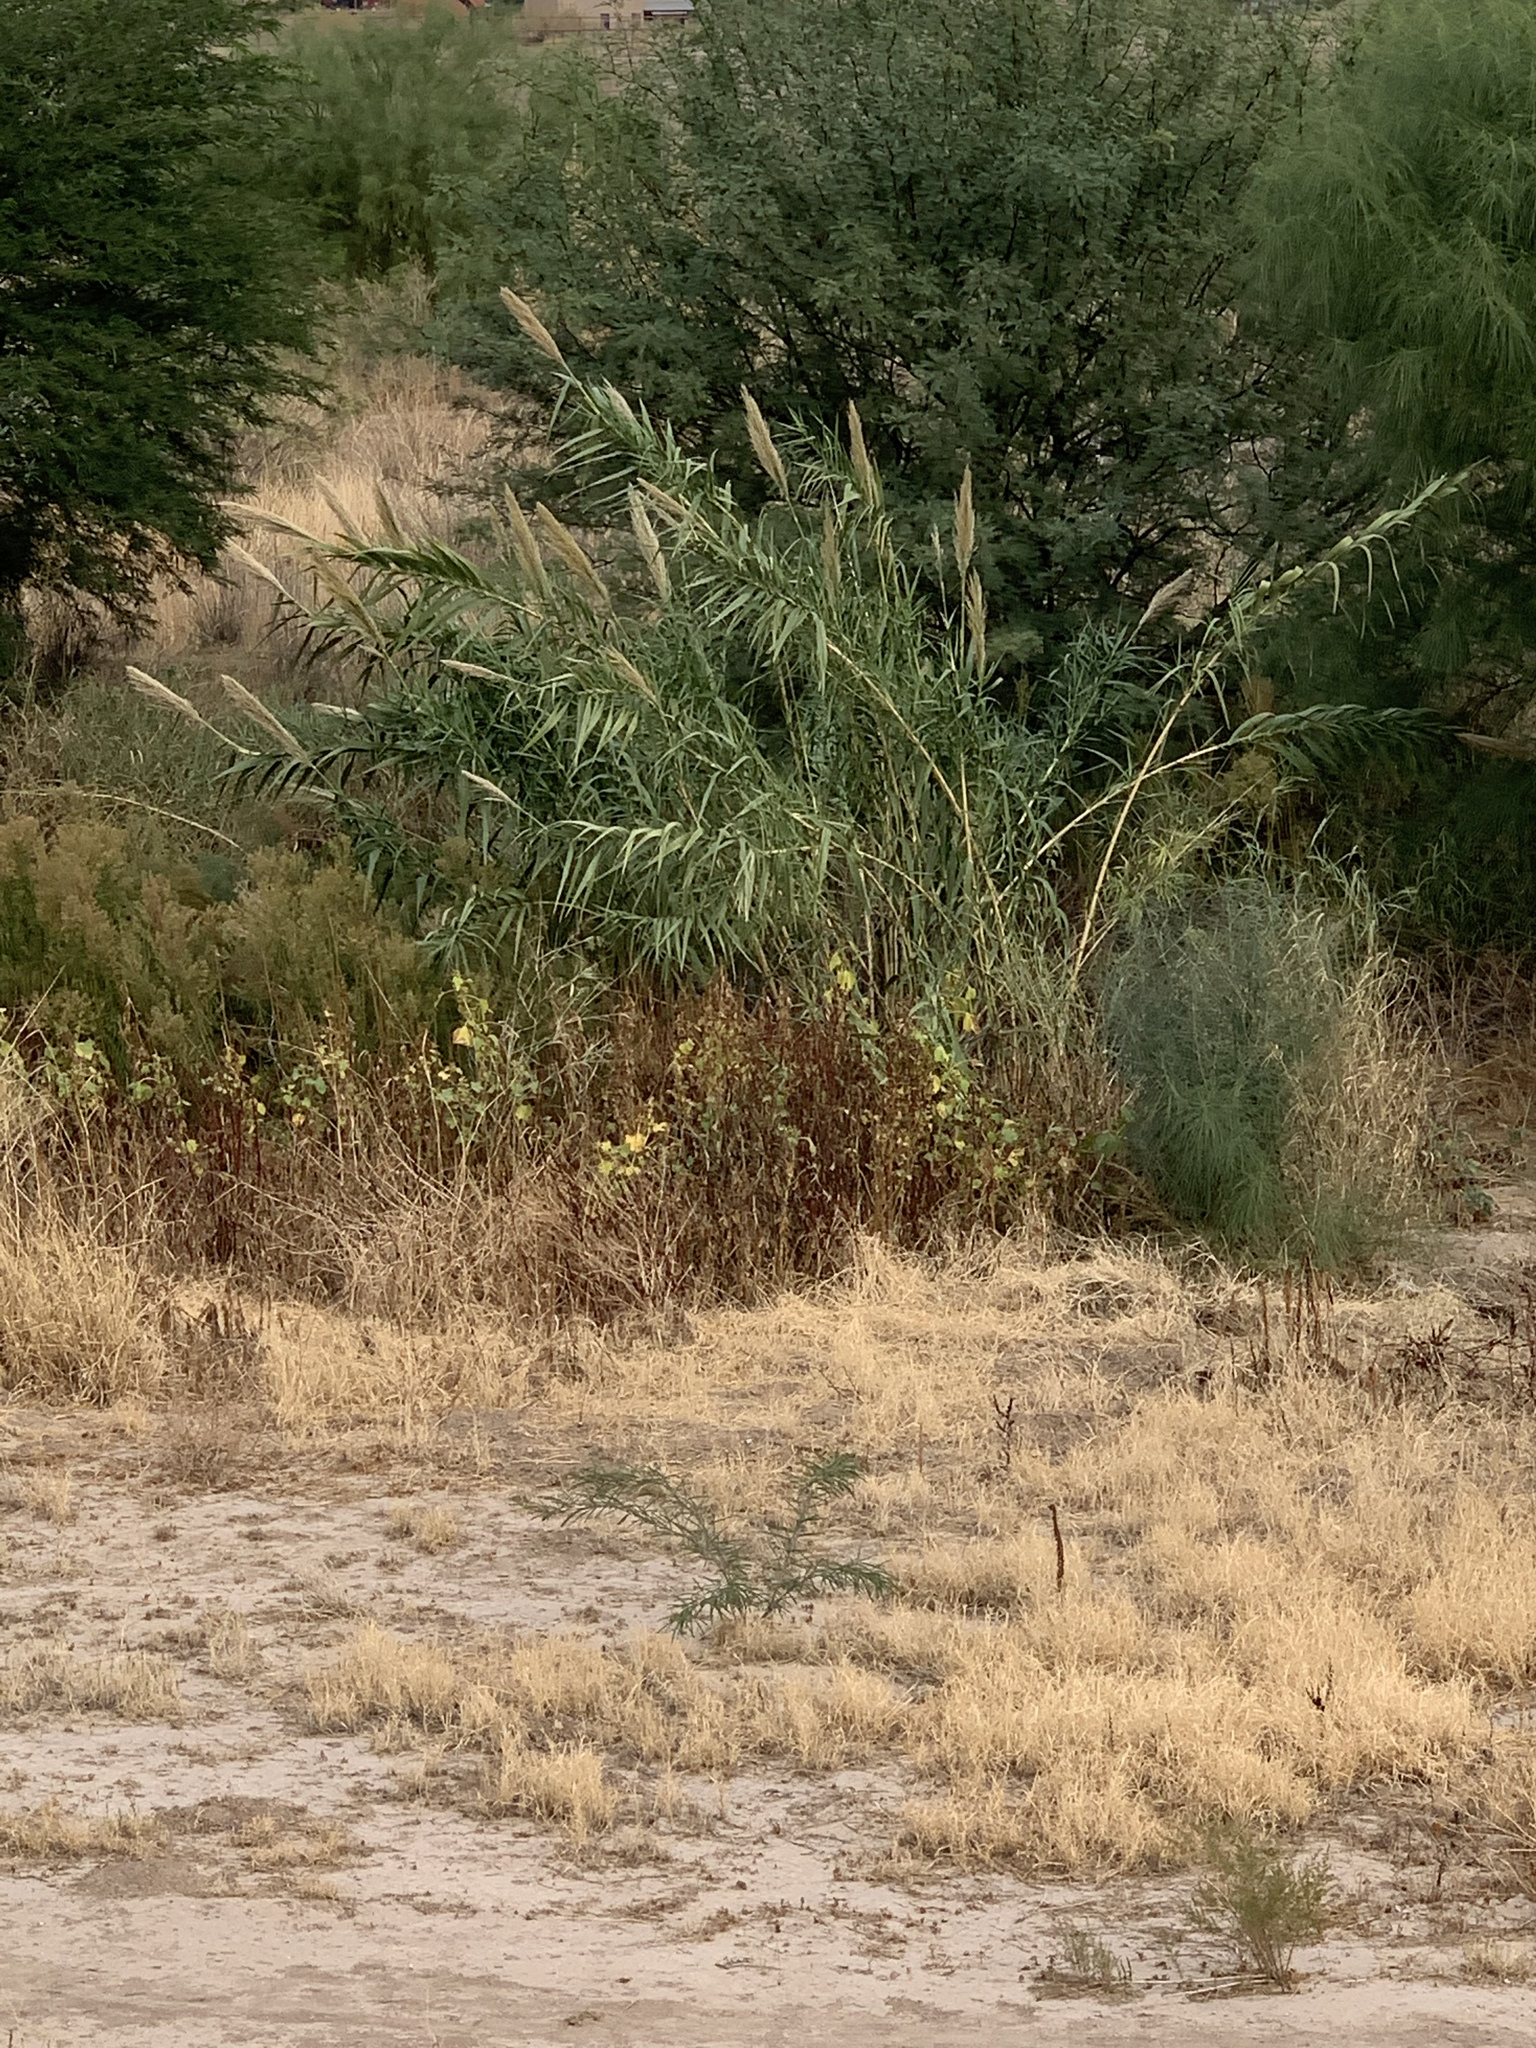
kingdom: Plantae
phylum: Tracheophyta
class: Liliopsida
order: Poales
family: Poaceae
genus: Arundo
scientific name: Arundo donax
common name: Giant reed
